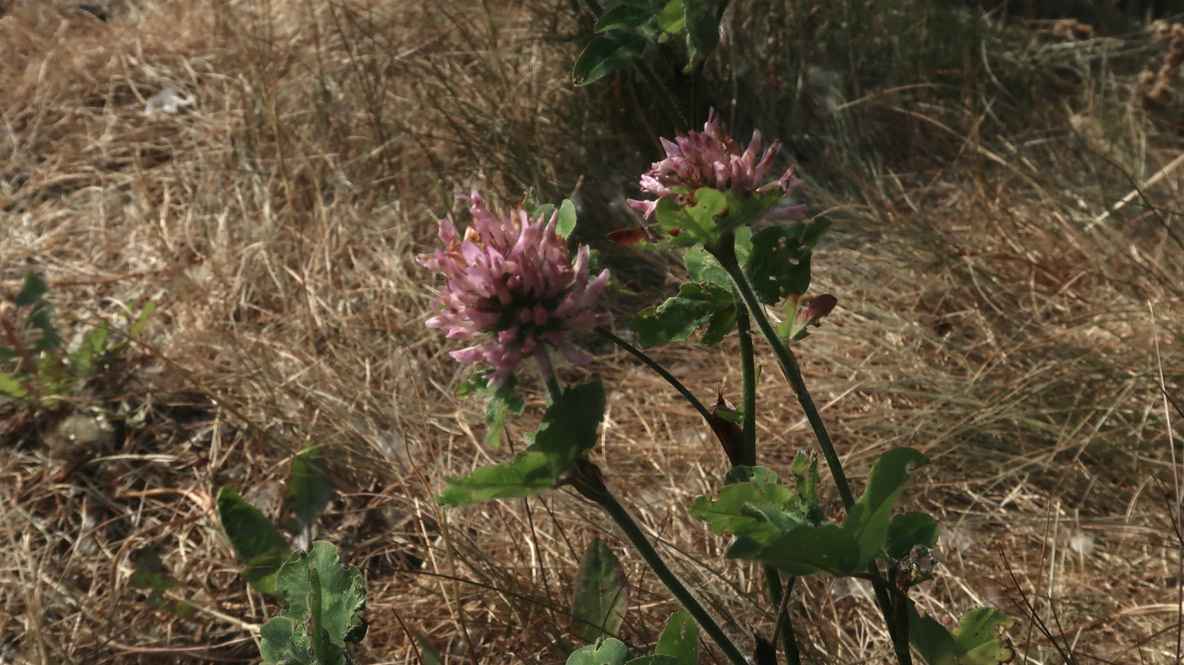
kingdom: Plantae
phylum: Tracheophyta
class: Magnoliopsida
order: Fabales
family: Fabaceae
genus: Trifolium
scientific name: Trifolium pratense
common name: Red clover
